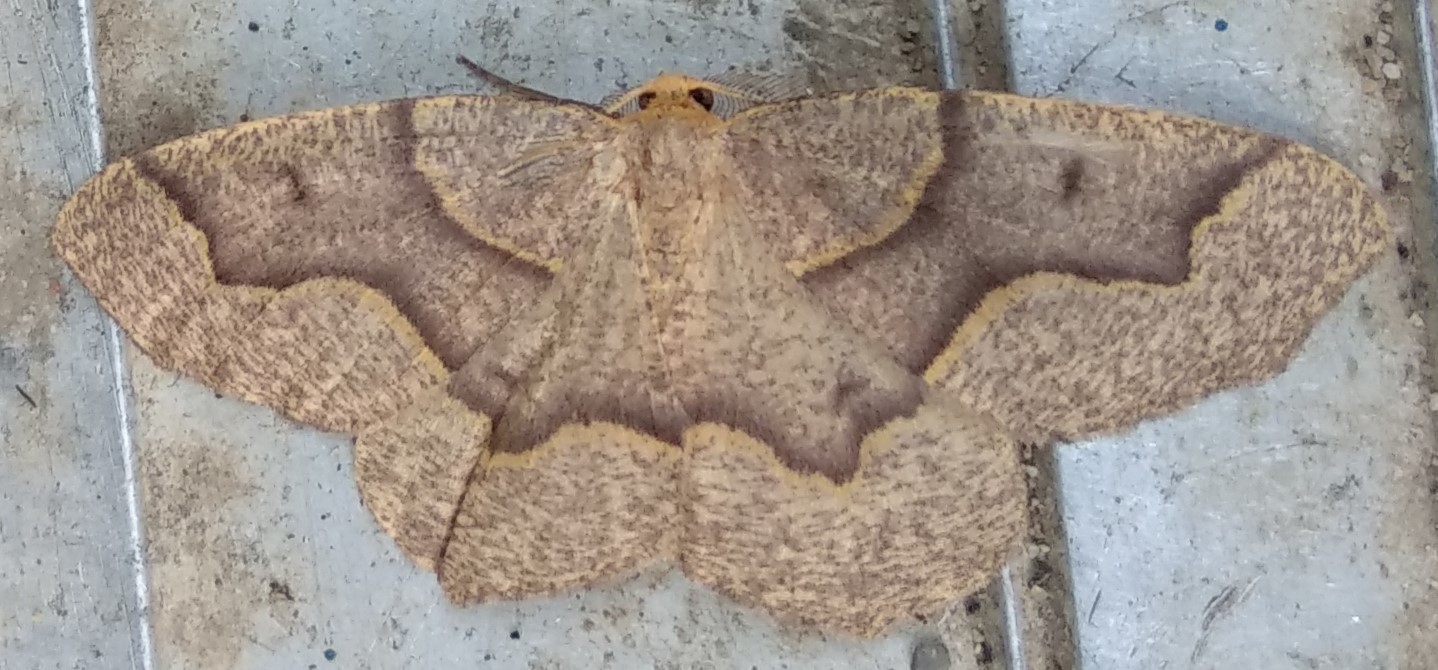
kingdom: Animalia
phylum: Arthropoda
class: Insecta
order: Lepidoptera
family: Geometridae
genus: Lambdina
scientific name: Lambdina fiscellaria
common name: Hemlock looper
